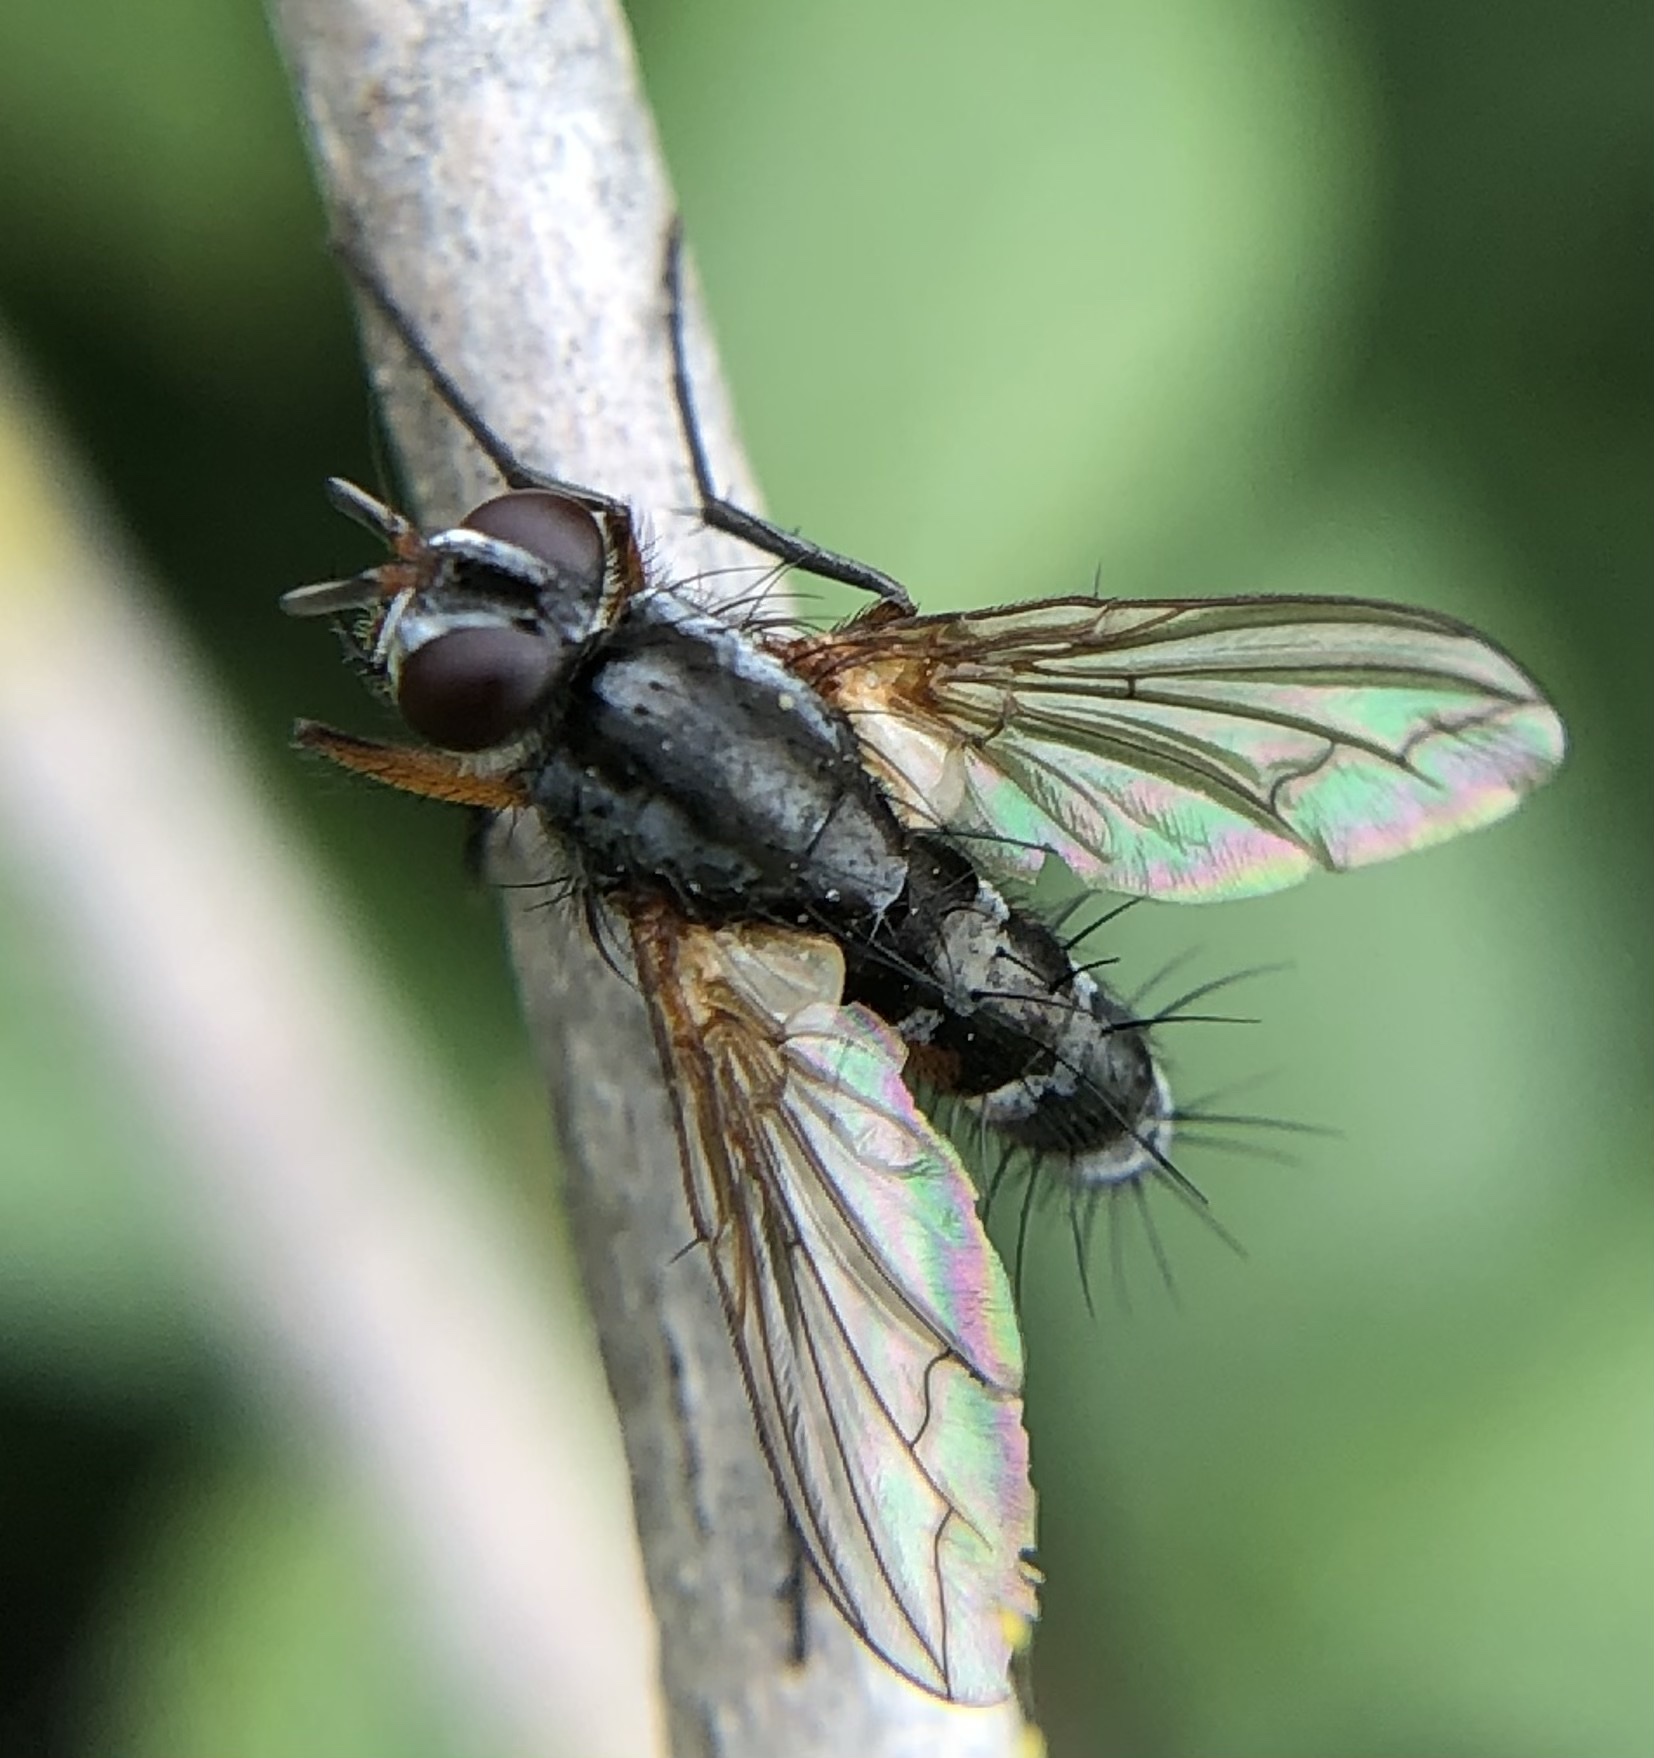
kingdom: Animalia
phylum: Arthropoda
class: Insecta
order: Diptera
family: Tachinidae
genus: Mintho
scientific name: Mintho rufiventris
